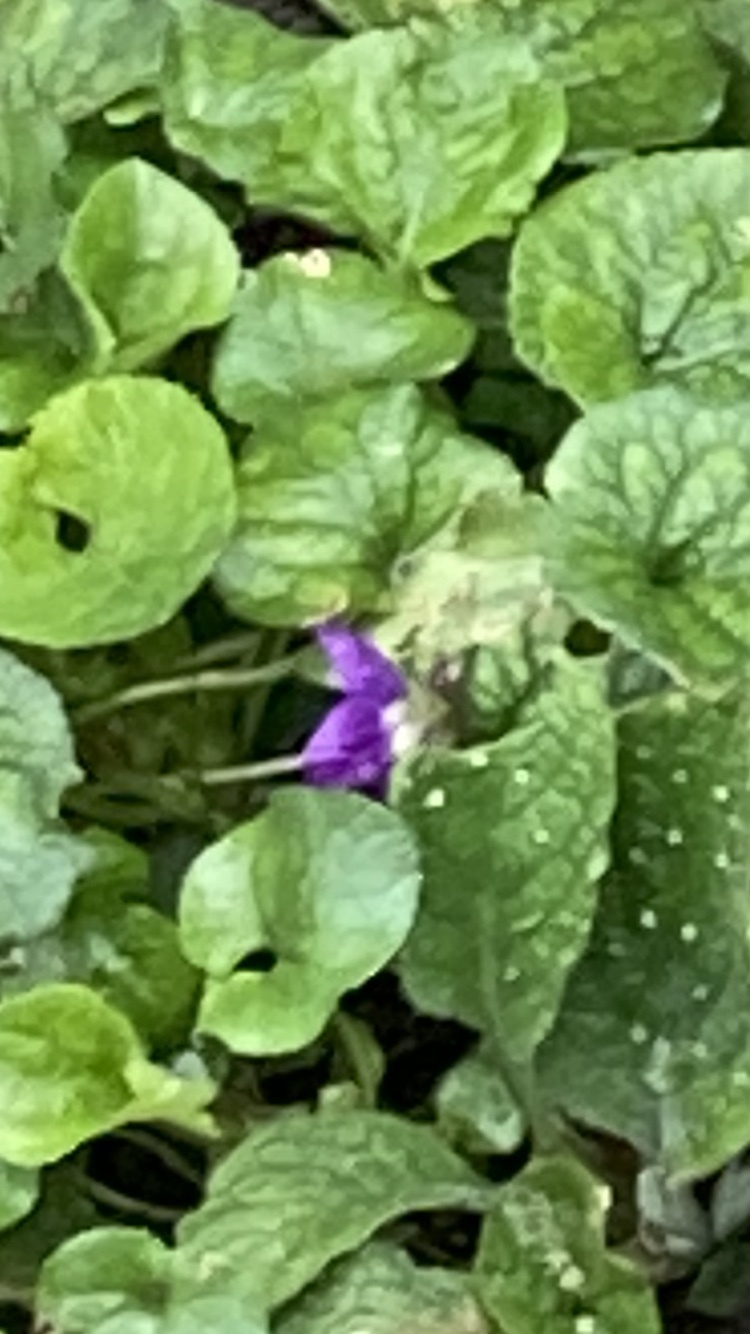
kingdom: Plantae
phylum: Tracheophyta
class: Magnoliopsida
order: Malpighiales
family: Violaceae
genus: Viola
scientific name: Viola odorata
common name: Sweet violet
